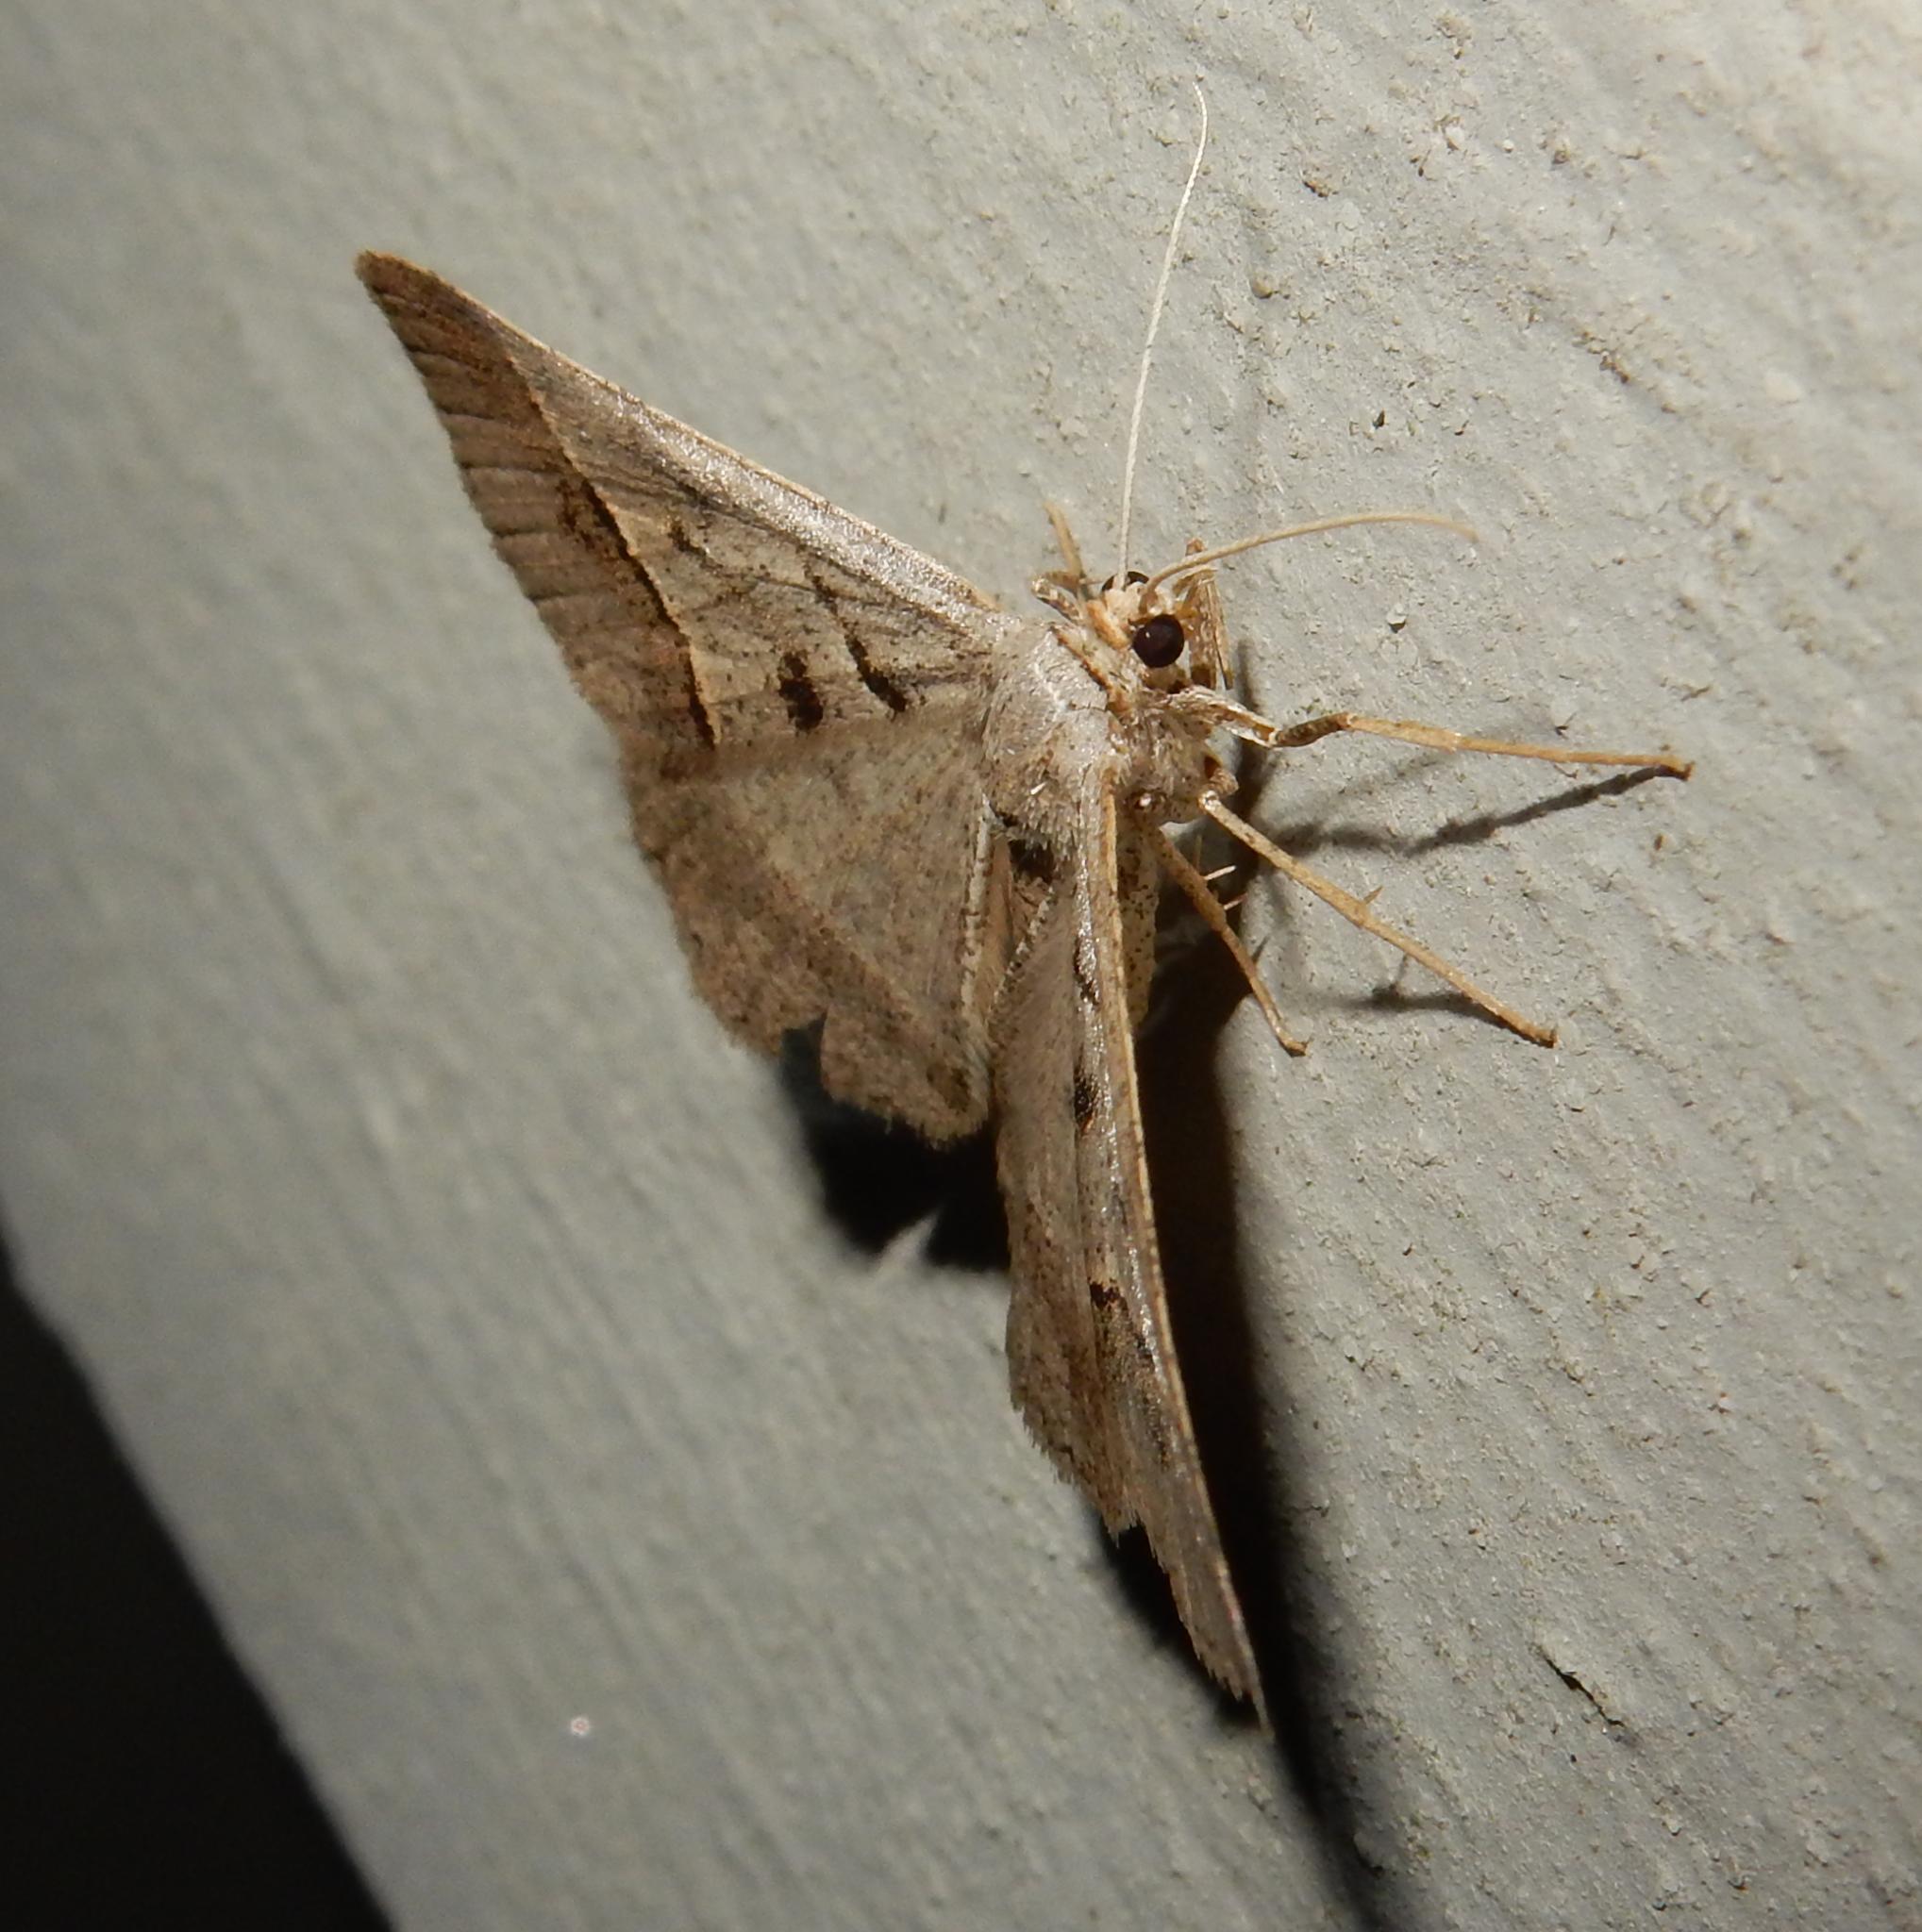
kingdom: Animalia
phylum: Arthropoda
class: Insecta
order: Lepidoptera
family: Geometridae
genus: Isturgia
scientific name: Isturgia spissata
